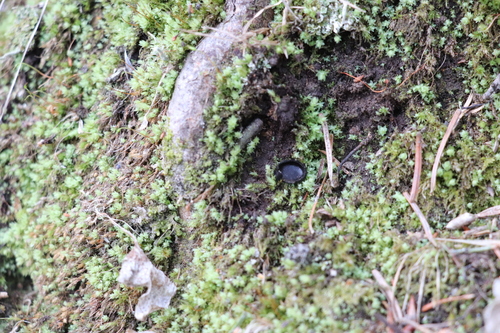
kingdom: Fungi
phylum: Ascomycota
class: Pezizomycetes
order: Pezizales
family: Sarcosomataceae
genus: Pseudoplectania
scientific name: Pseudoplectania nigrella
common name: Ebony cup
